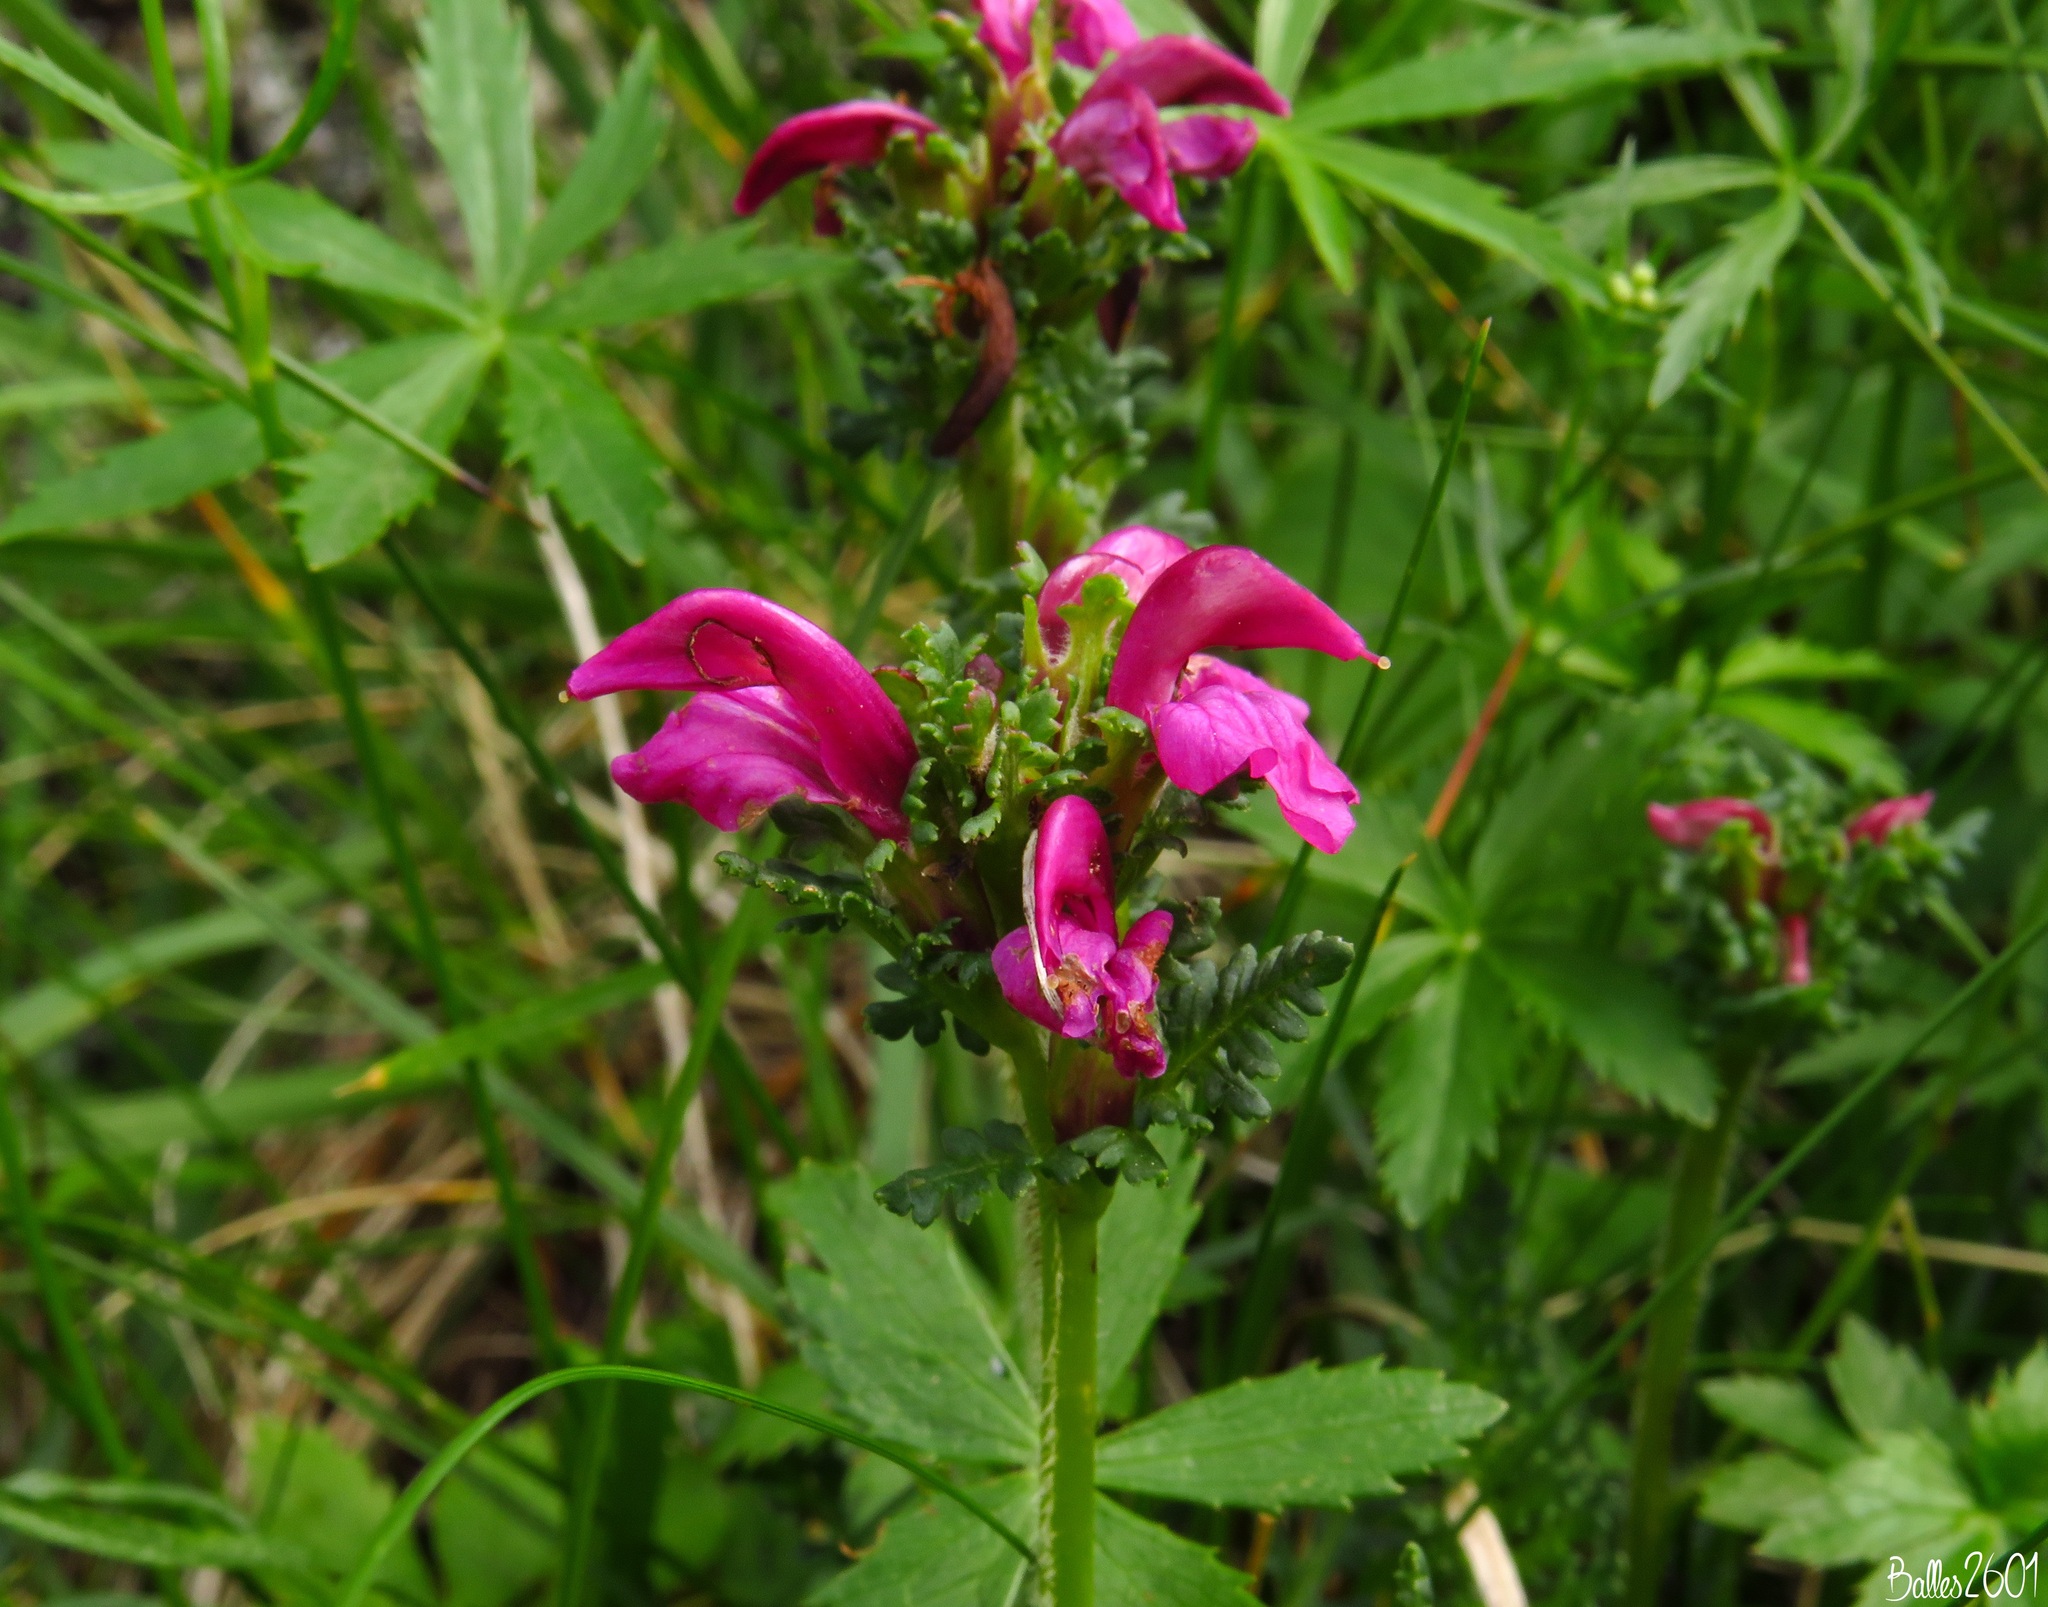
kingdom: Plantae
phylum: Tracheophyta
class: Magnoliopsida
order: Lamiales
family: Orobanchaceae
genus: Pedicularis
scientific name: Pedicularis pyrenaica
